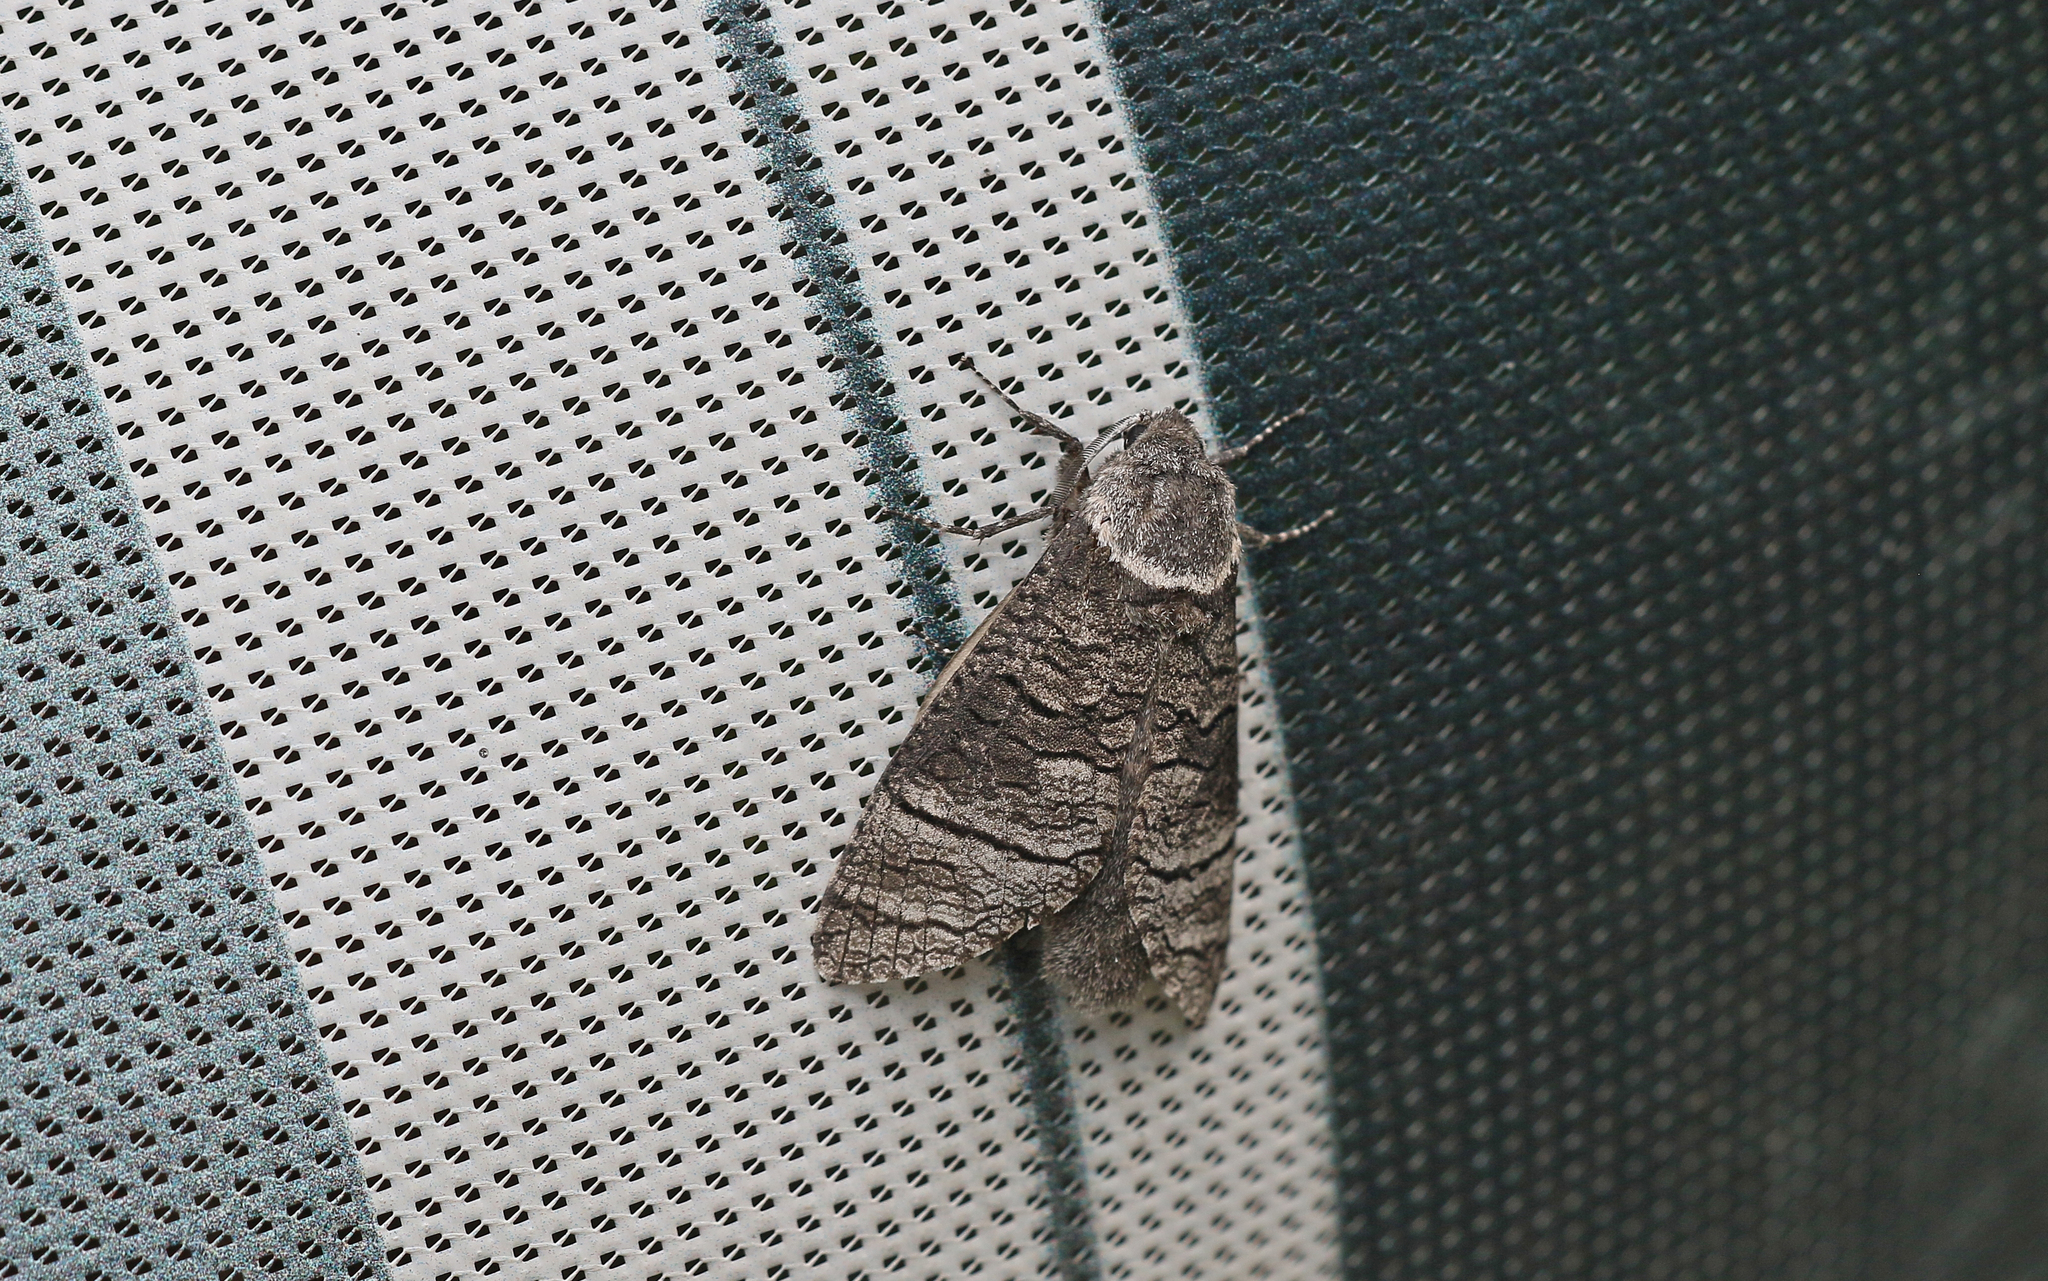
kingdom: Animalia
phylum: Arthropoda
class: Insecta
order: Lepidoptera
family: Cossidae
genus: Acossus
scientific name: Acossus terebra
